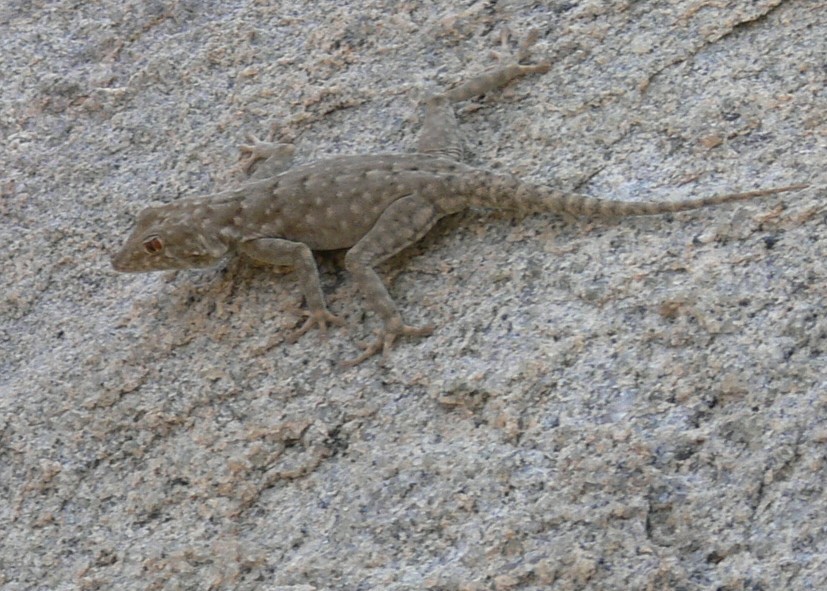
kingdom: Animalia
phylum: Chordata
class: Squamata
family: Gekkonidae
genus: Rhoptropus
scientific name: Rhoptropus bradfieldi
